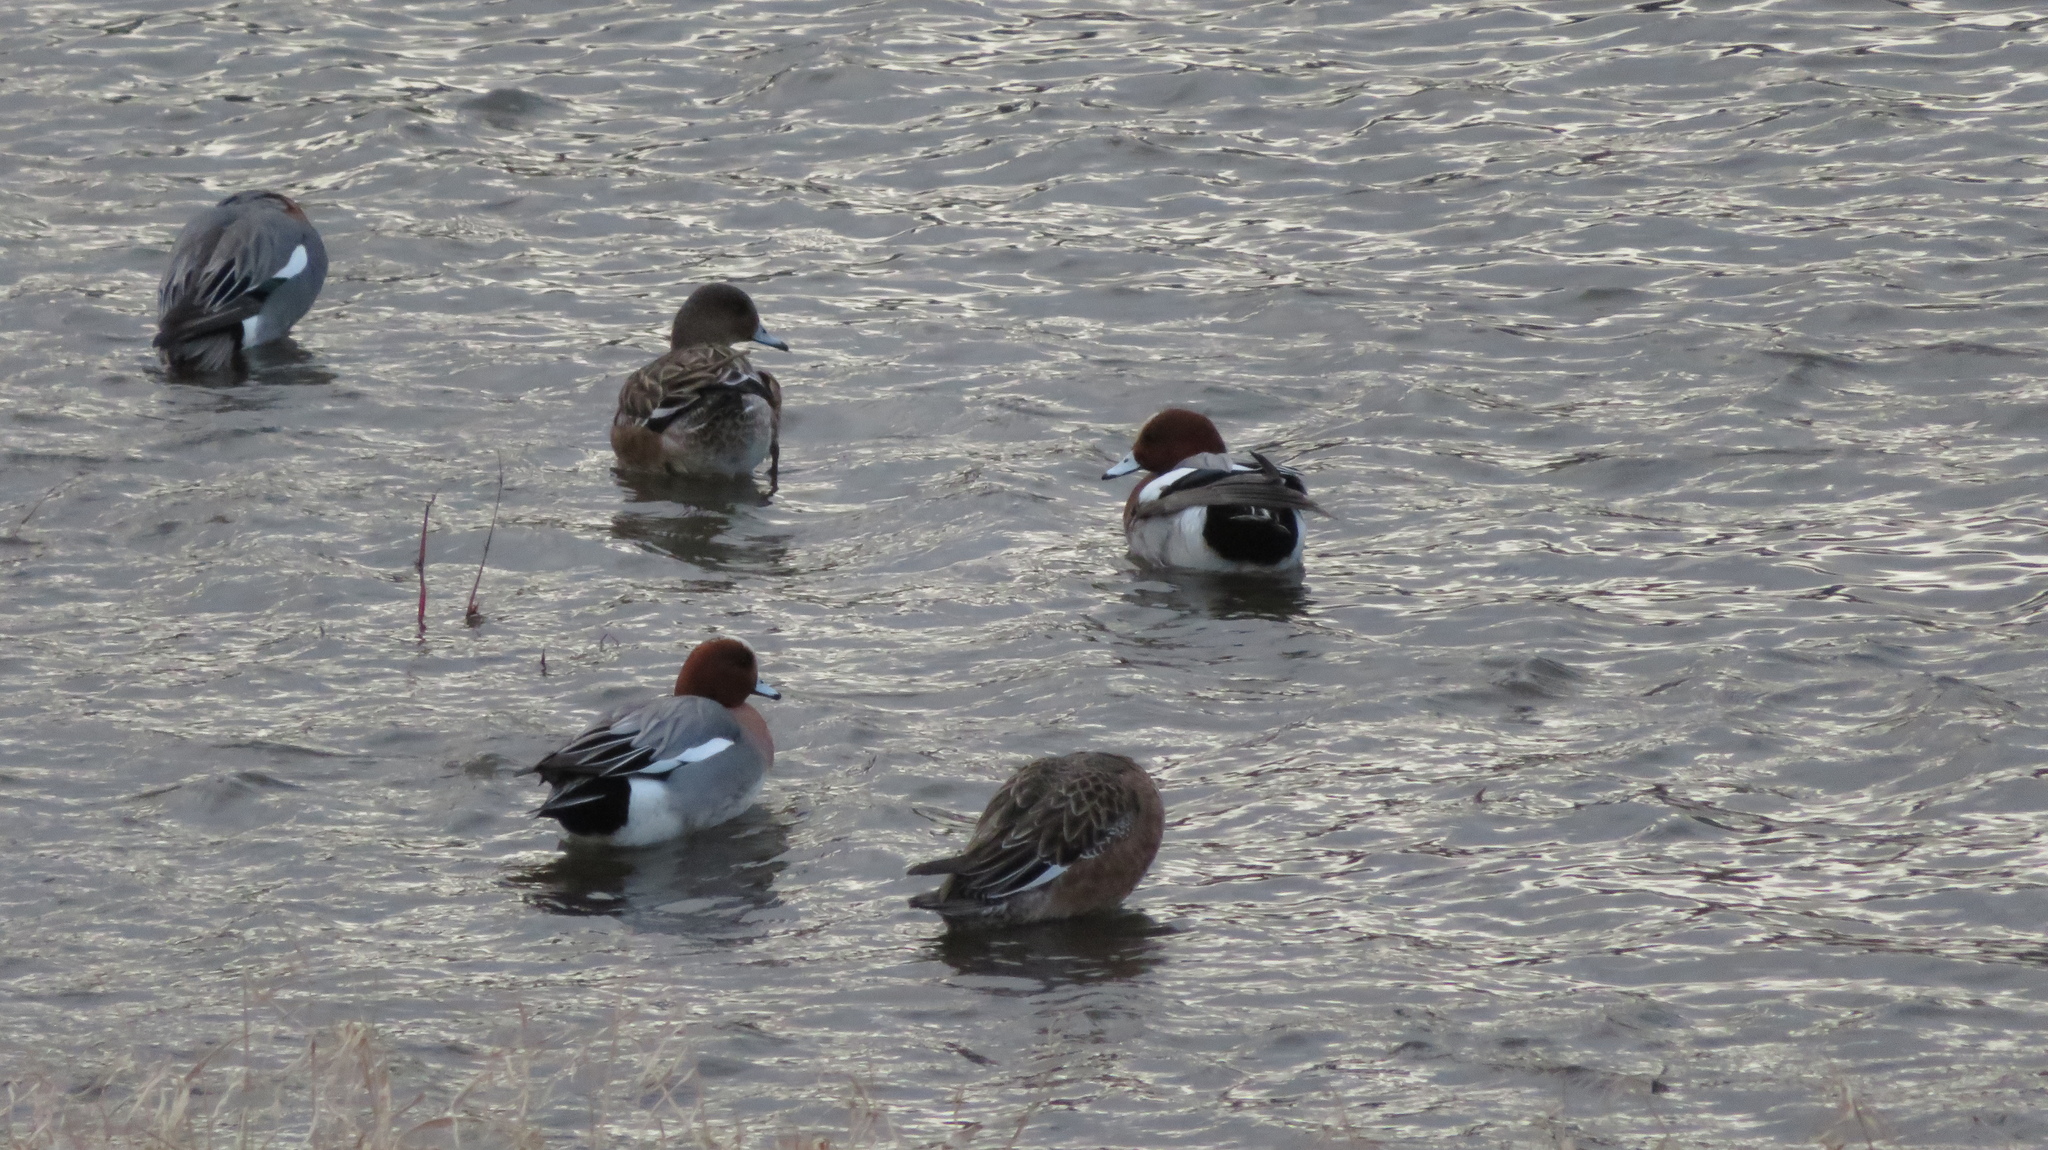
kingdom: Animalia
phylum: Chordata
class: Aves
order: Anseriformes
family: Anatidae
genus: Mareca
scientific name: Mareca penelope
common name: Eurasian wigeon
